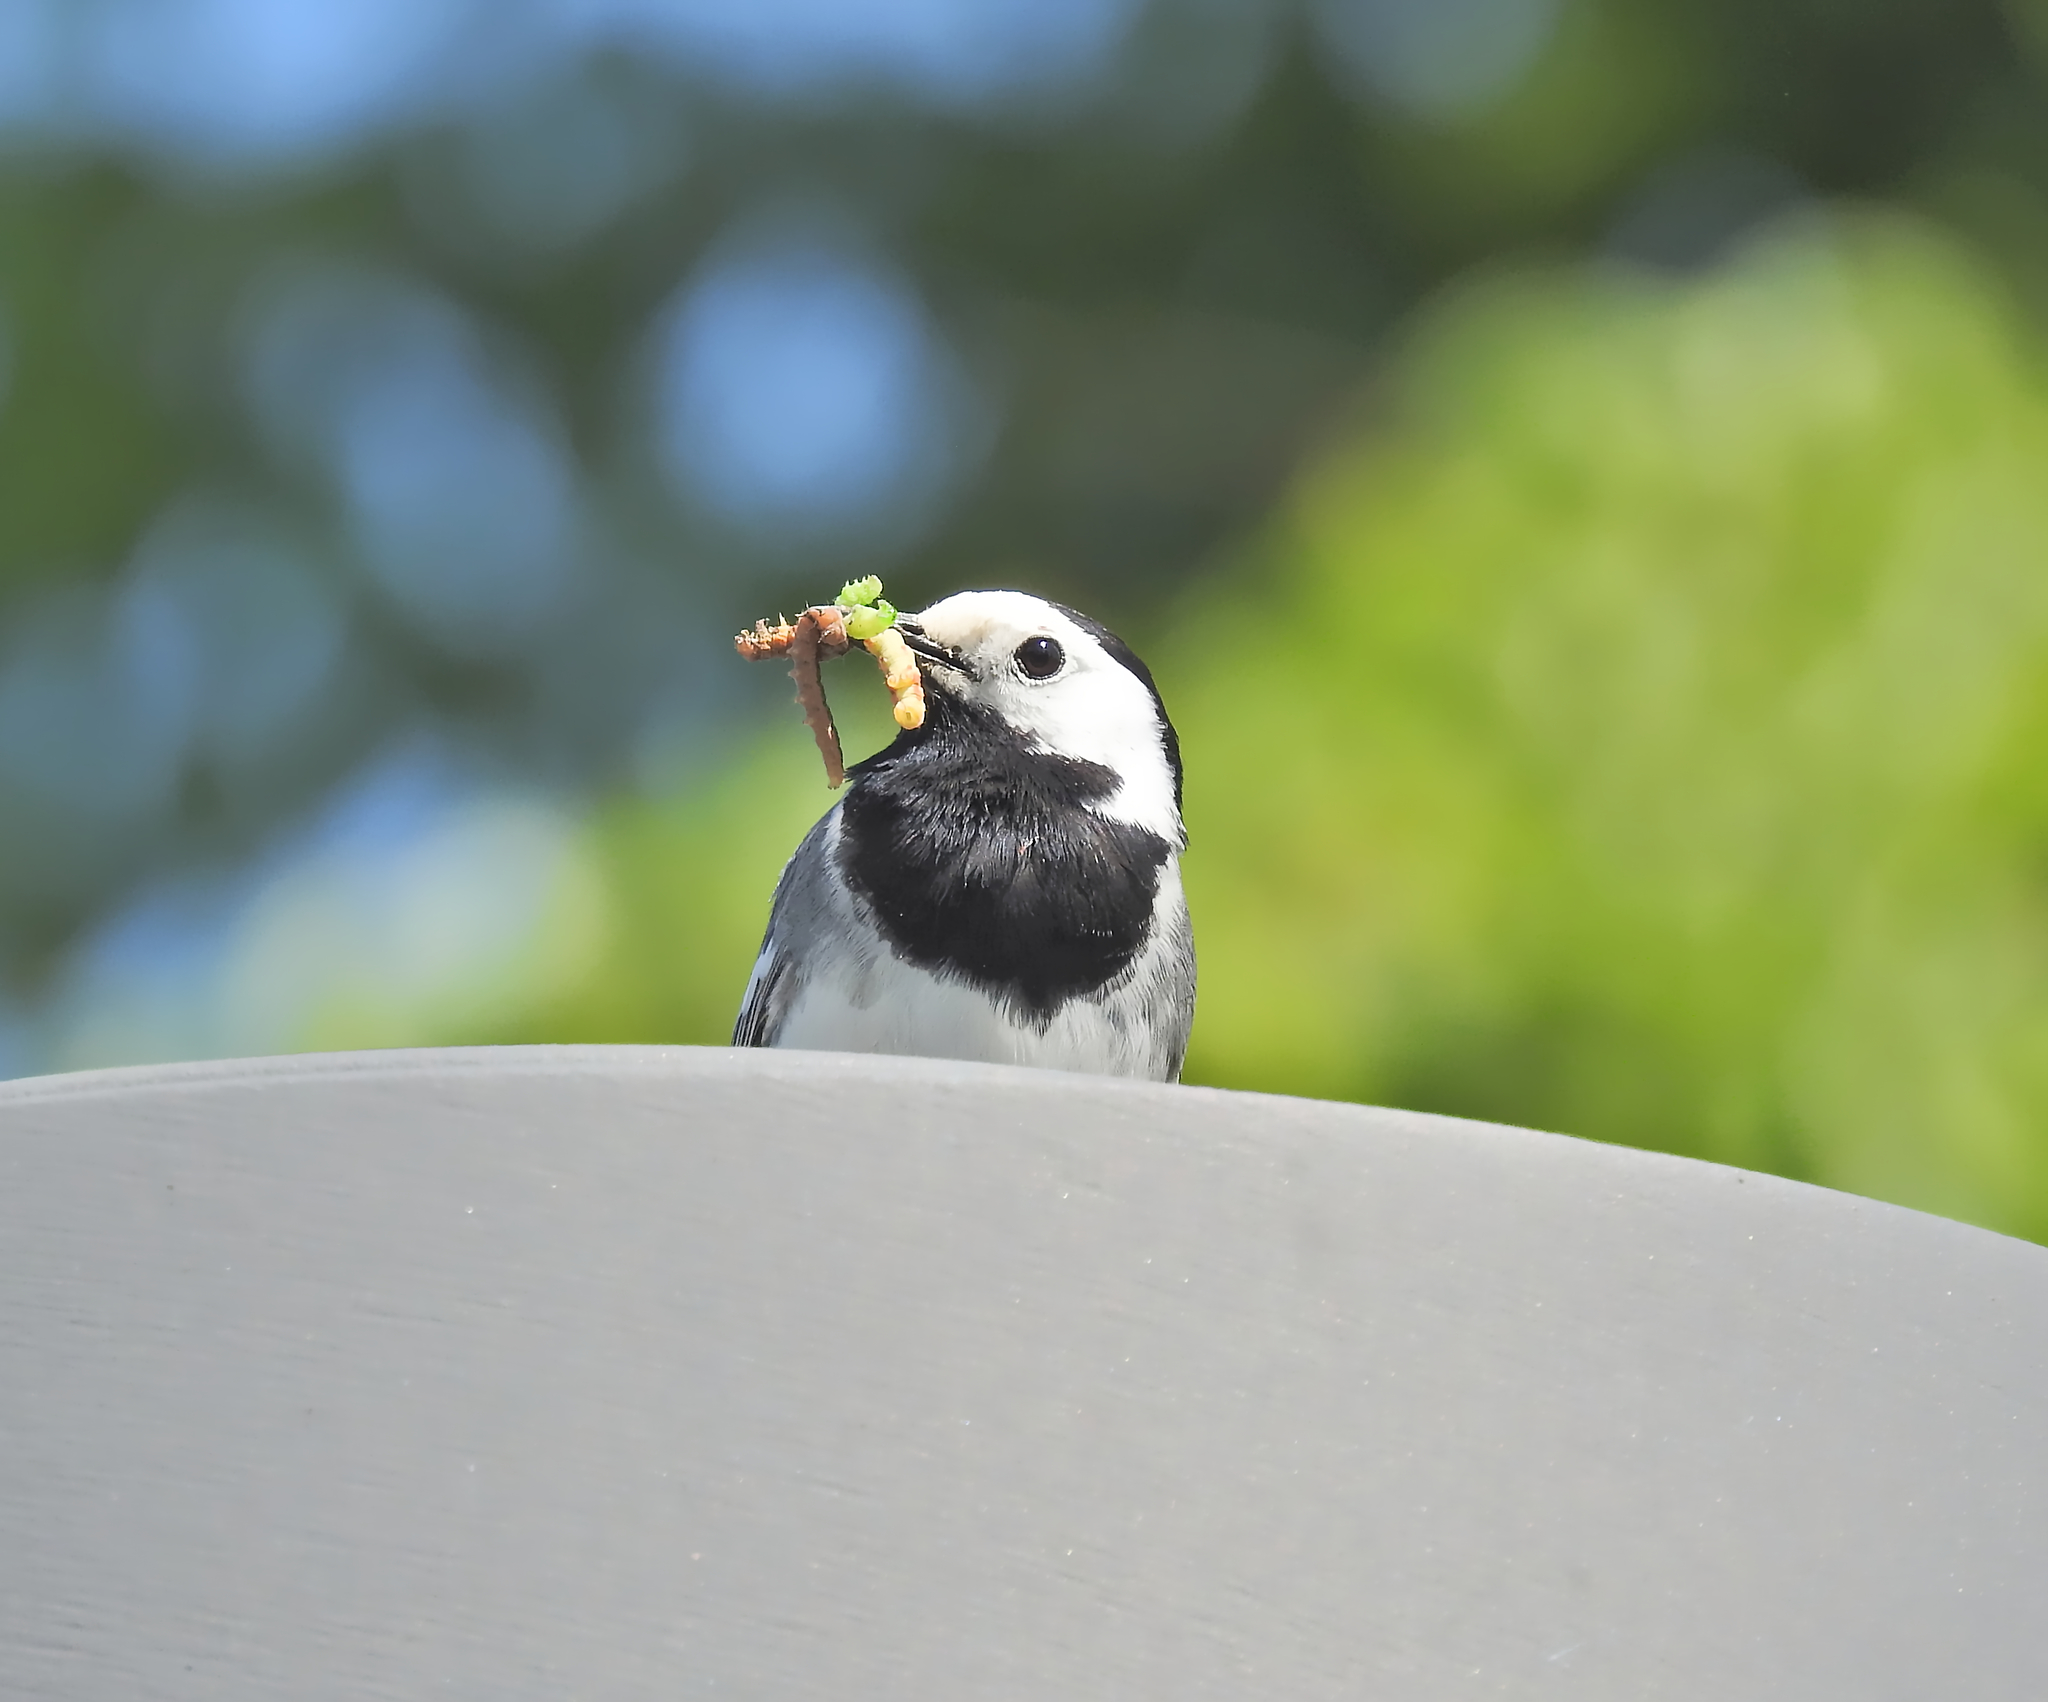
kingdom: Animalia
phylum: Chordata
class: Aves
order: Passeriformes
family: Motacillidae
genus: Motacilla
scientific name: Motacilla alba
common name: White wagtail
